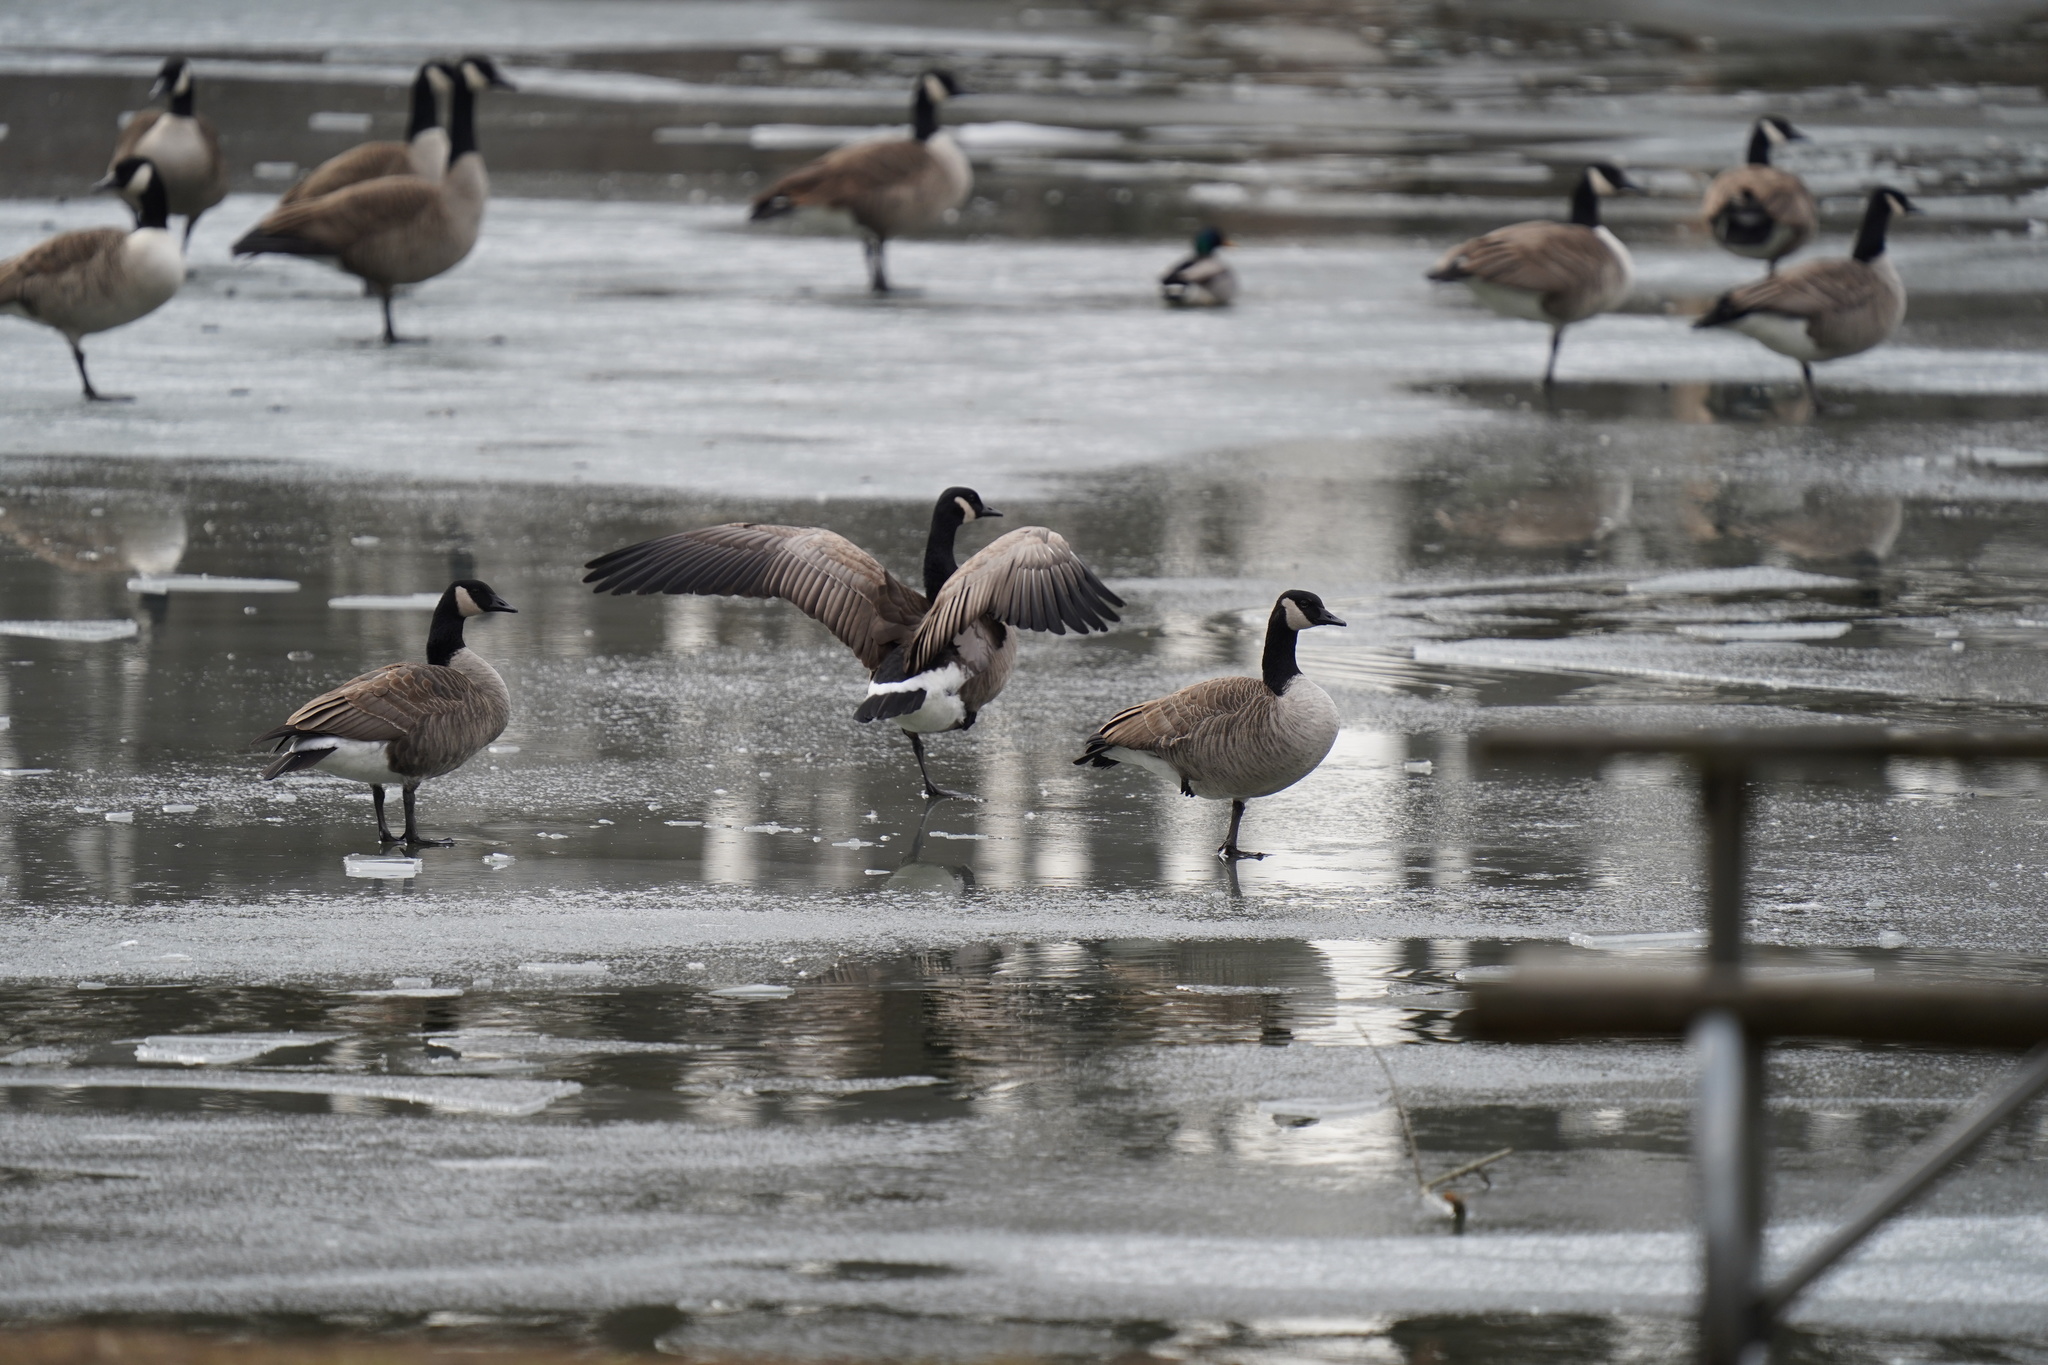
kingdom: Animalia
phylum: Chordata
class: Aves
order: Anseriformes
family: Anatidae
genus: Branta
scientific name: Branta canadensis
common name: Canada goose
